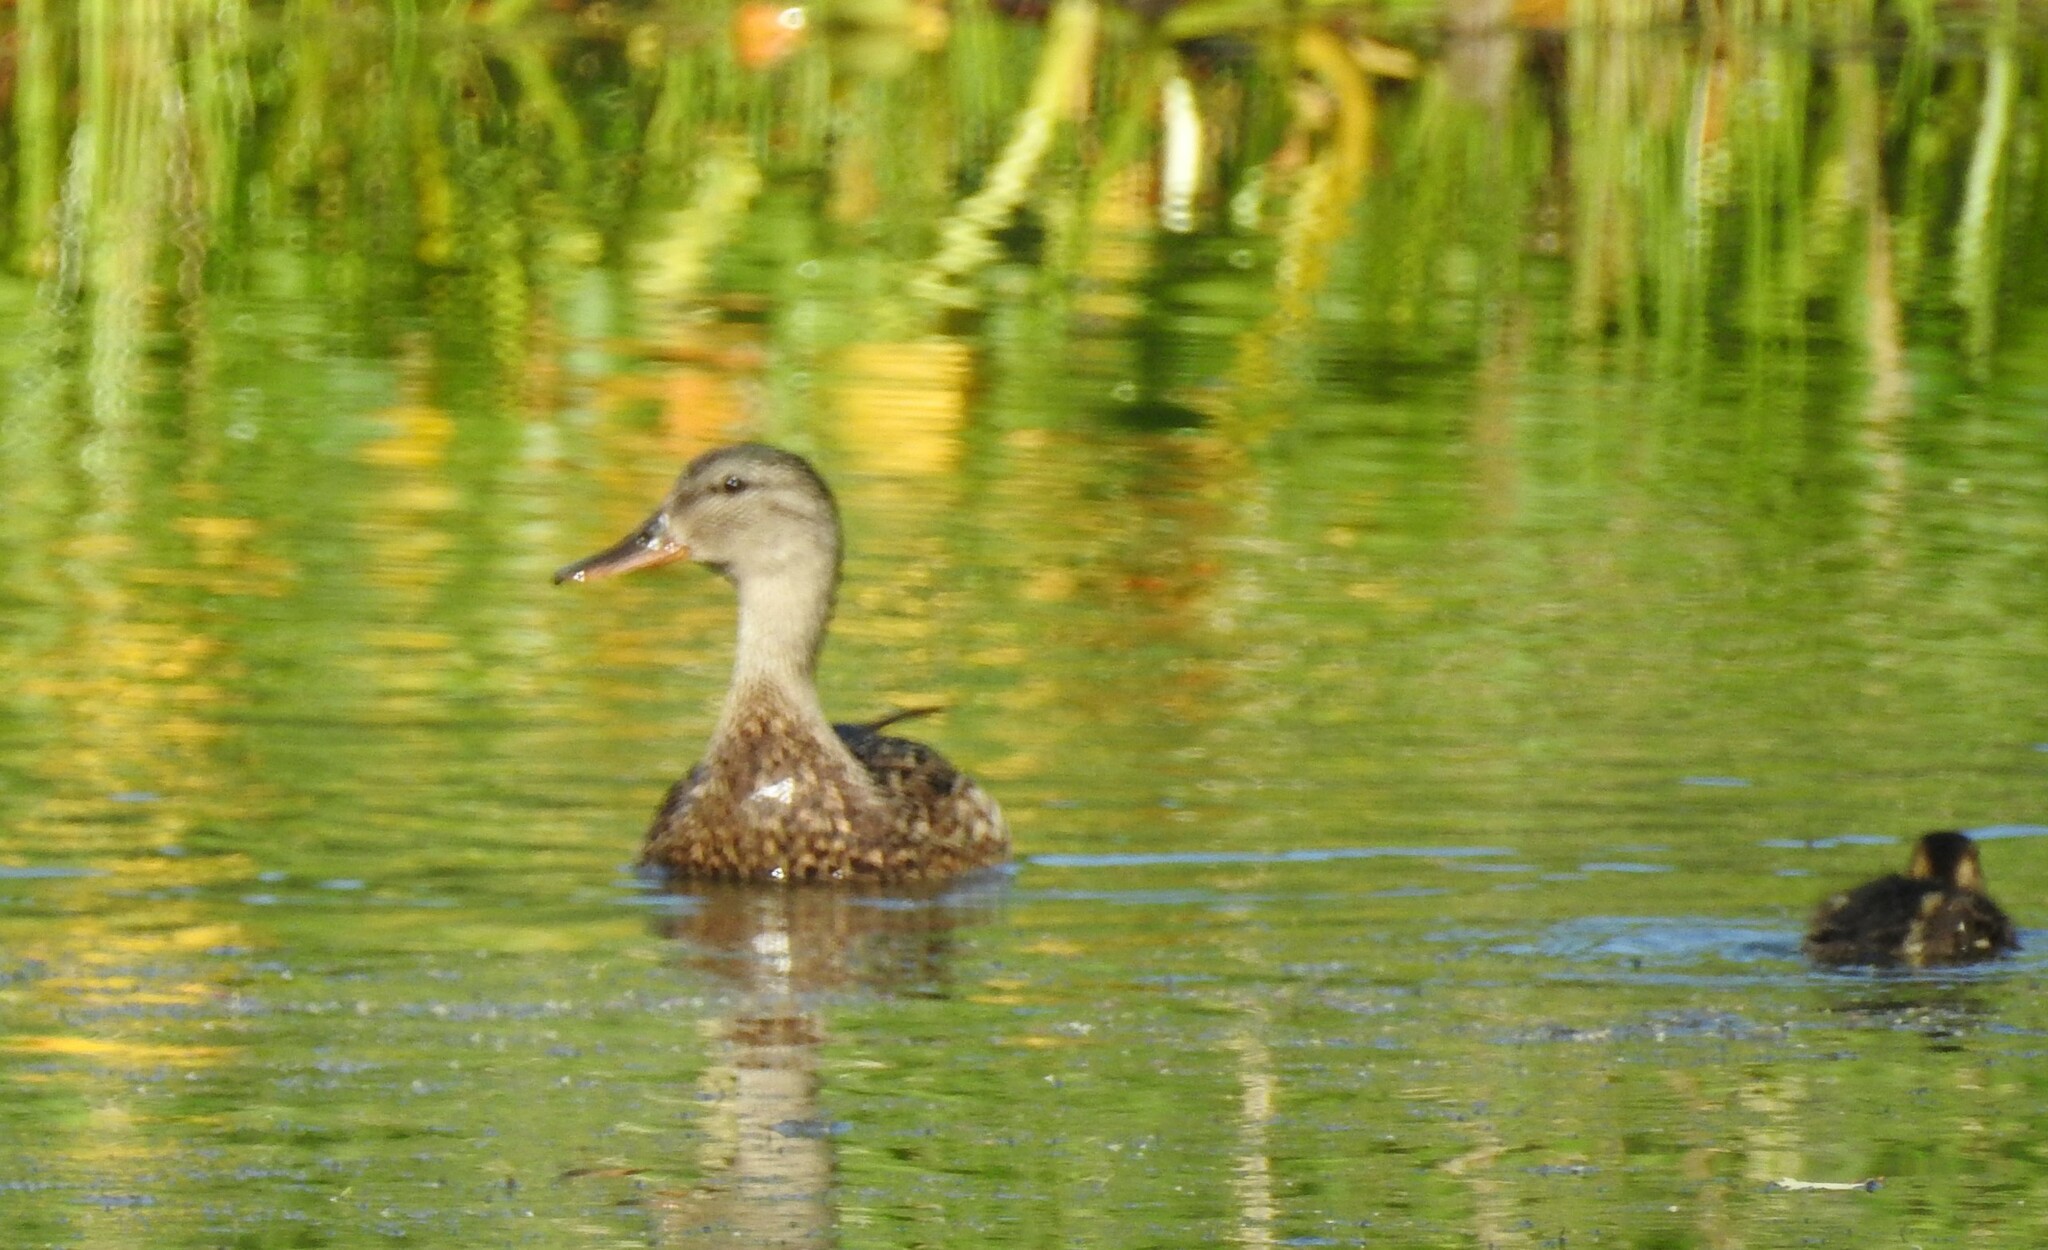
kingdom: Animalia
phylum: Chordata
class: Aves
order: Anseriformes
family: Anatidae
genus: Mareca
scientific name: Mareca strepera
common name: Gadwall
